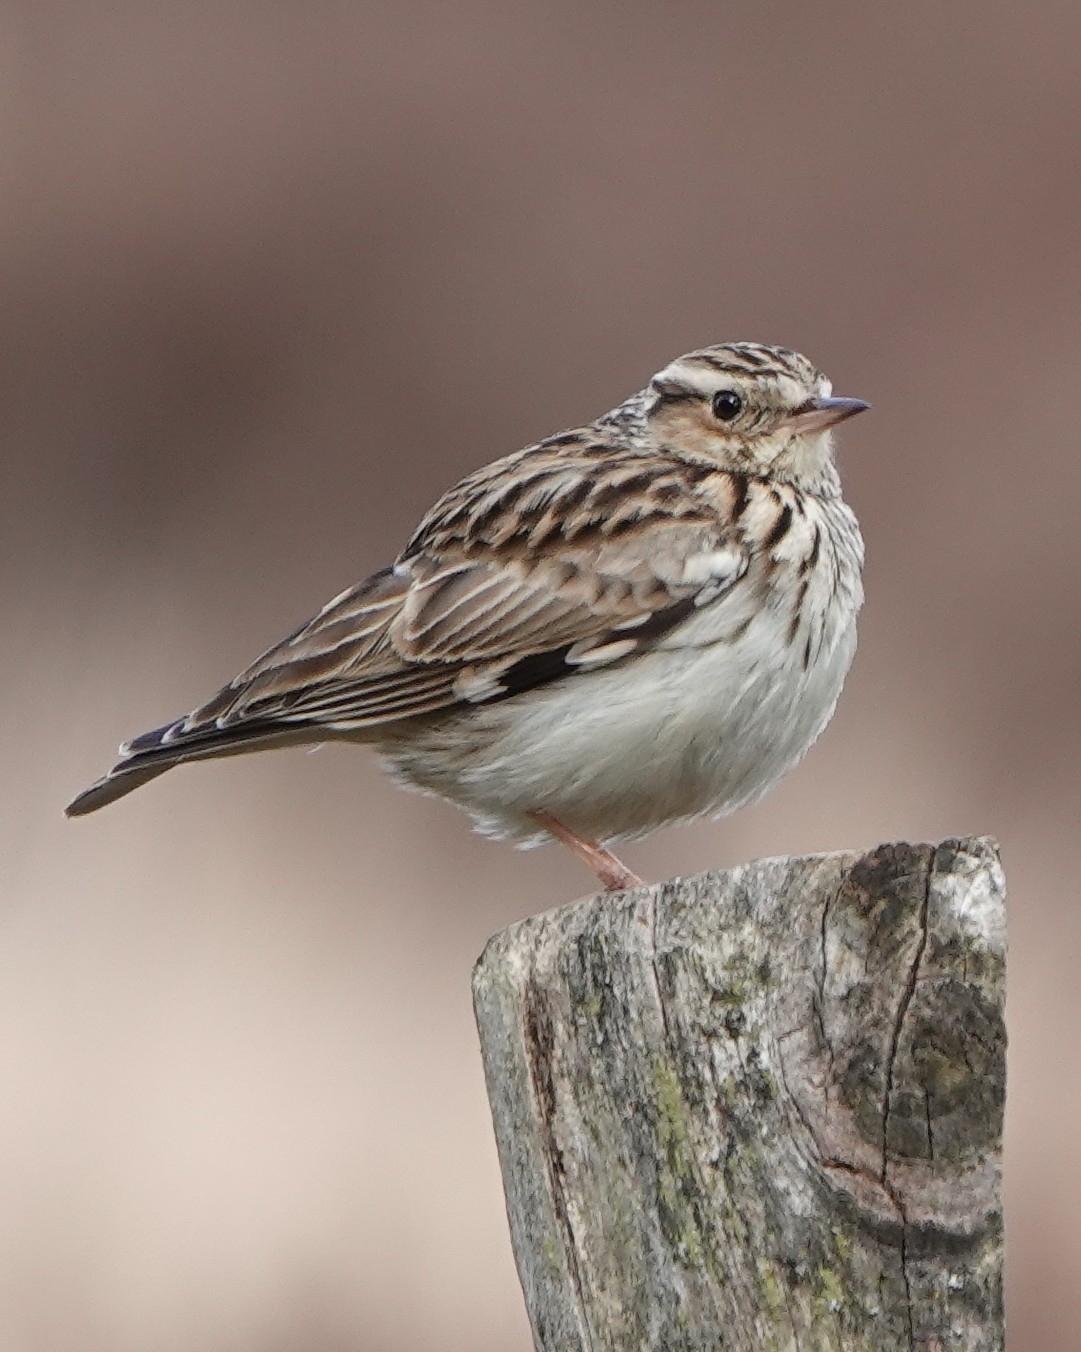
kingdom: Animalia
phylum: Chordata
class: Aves
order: Passeriformes
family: Alaudidae
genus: Lullula
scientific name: Lullula arborea
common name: Woodlark
